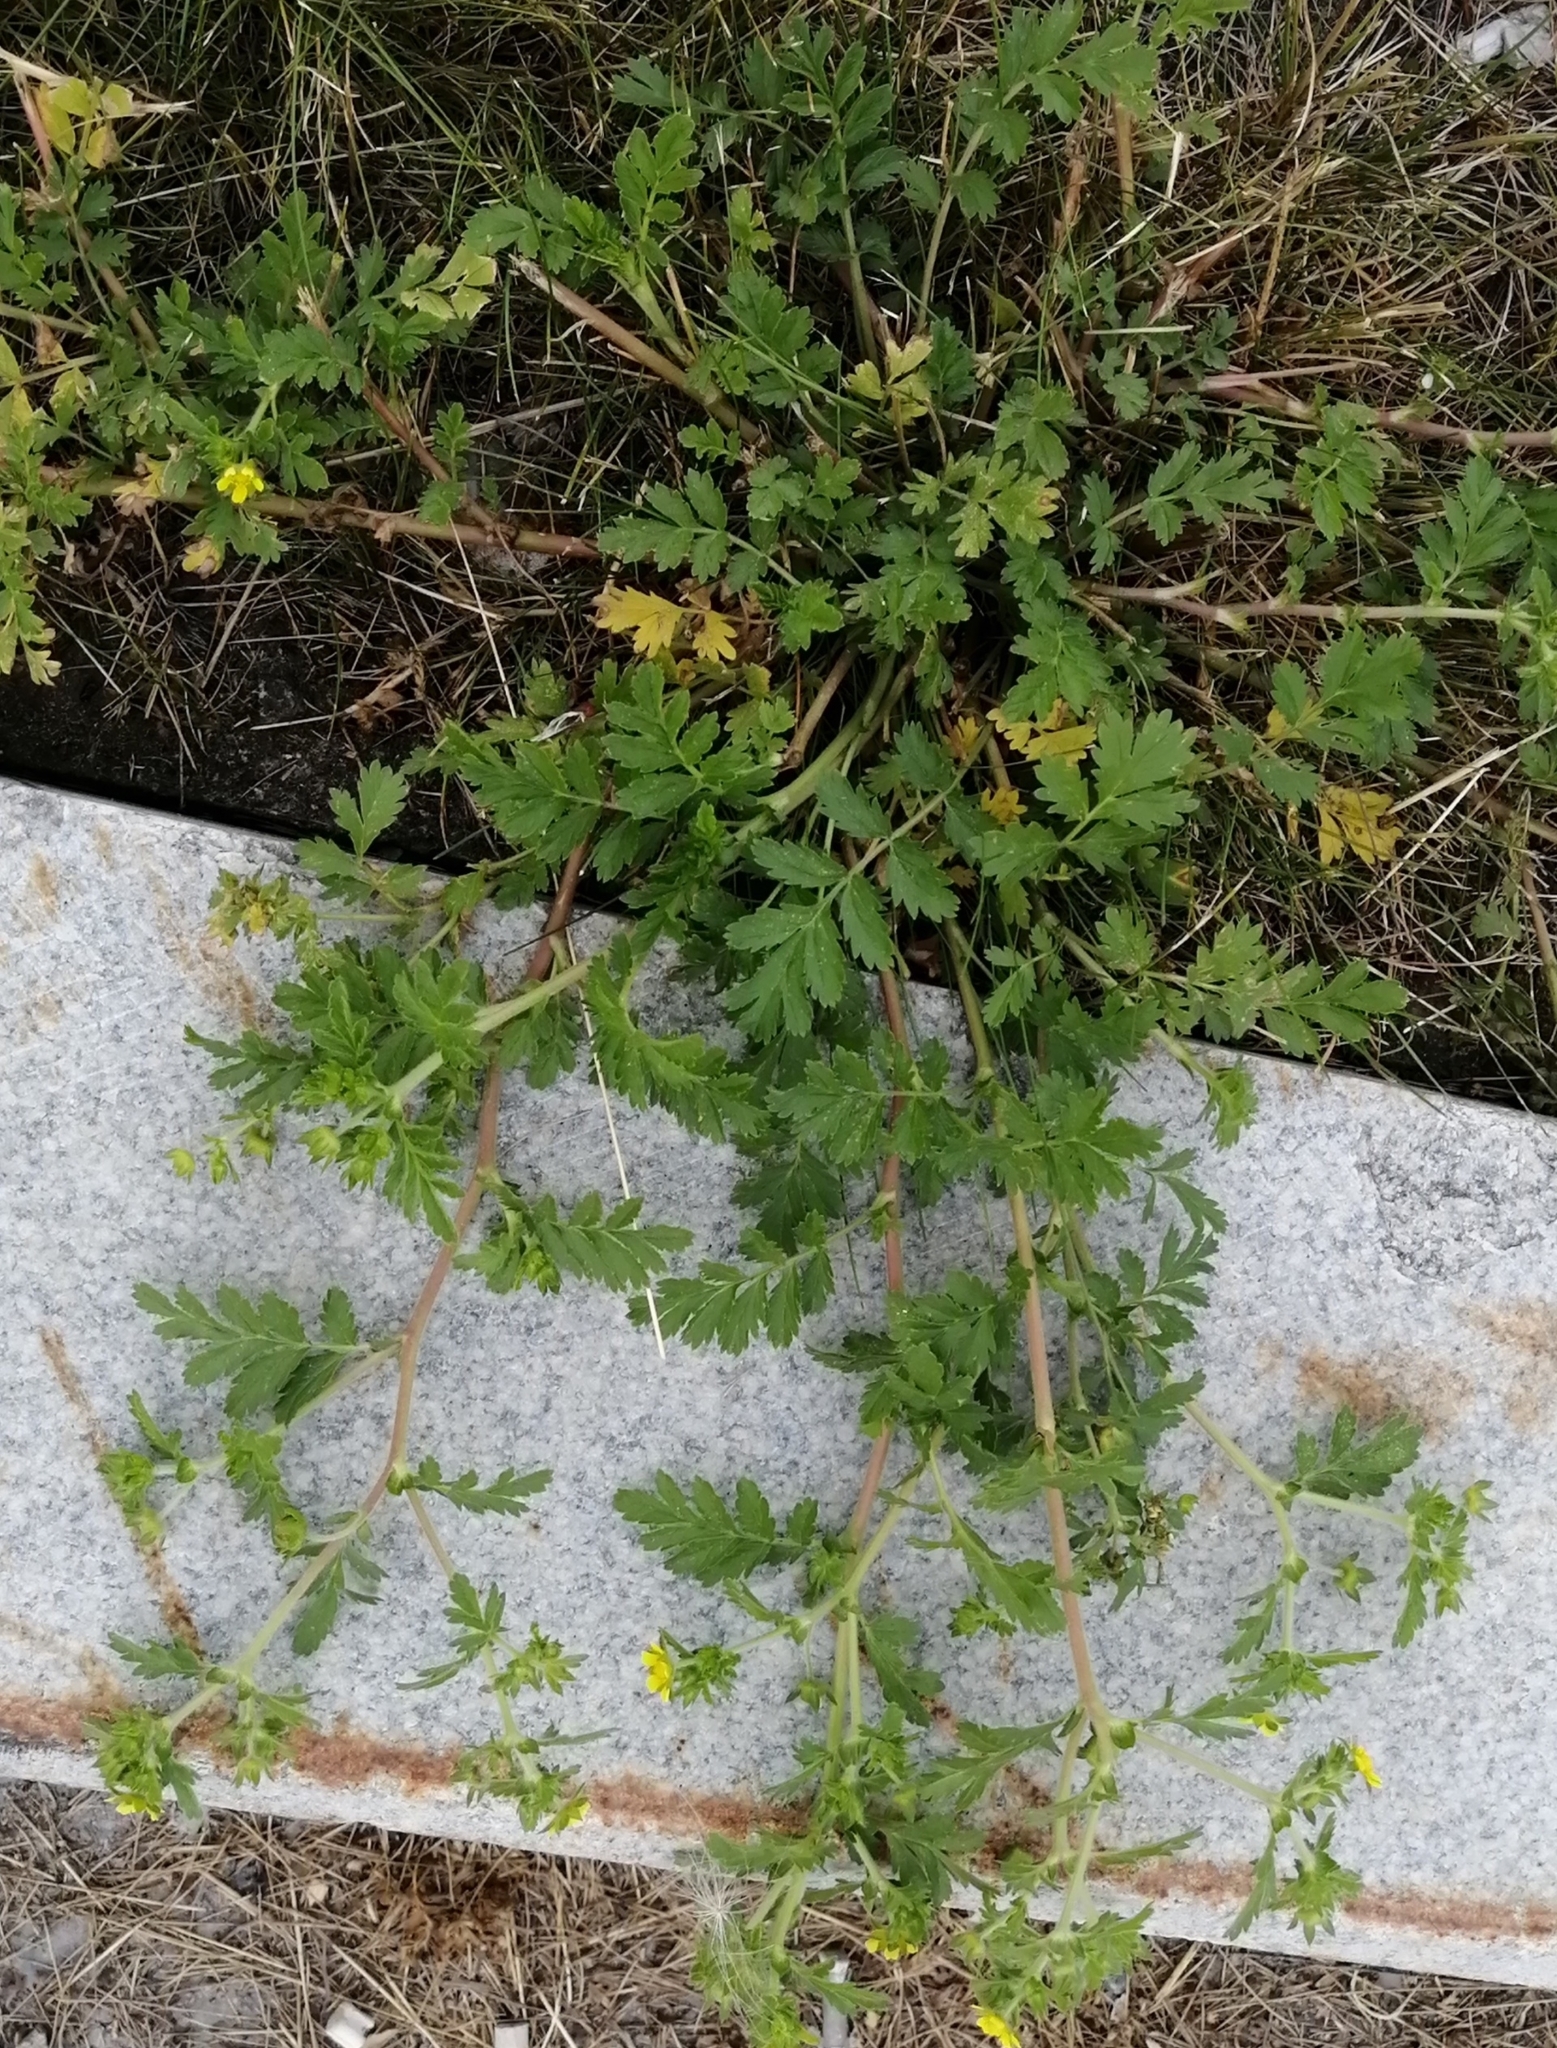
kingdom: Plantae
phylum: Tracheophyta
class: Magnoliopsida
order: Rosales
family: Rosaceae
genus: Potentilla
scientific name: Potentilla supina
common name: Prostrate cinquefoil
